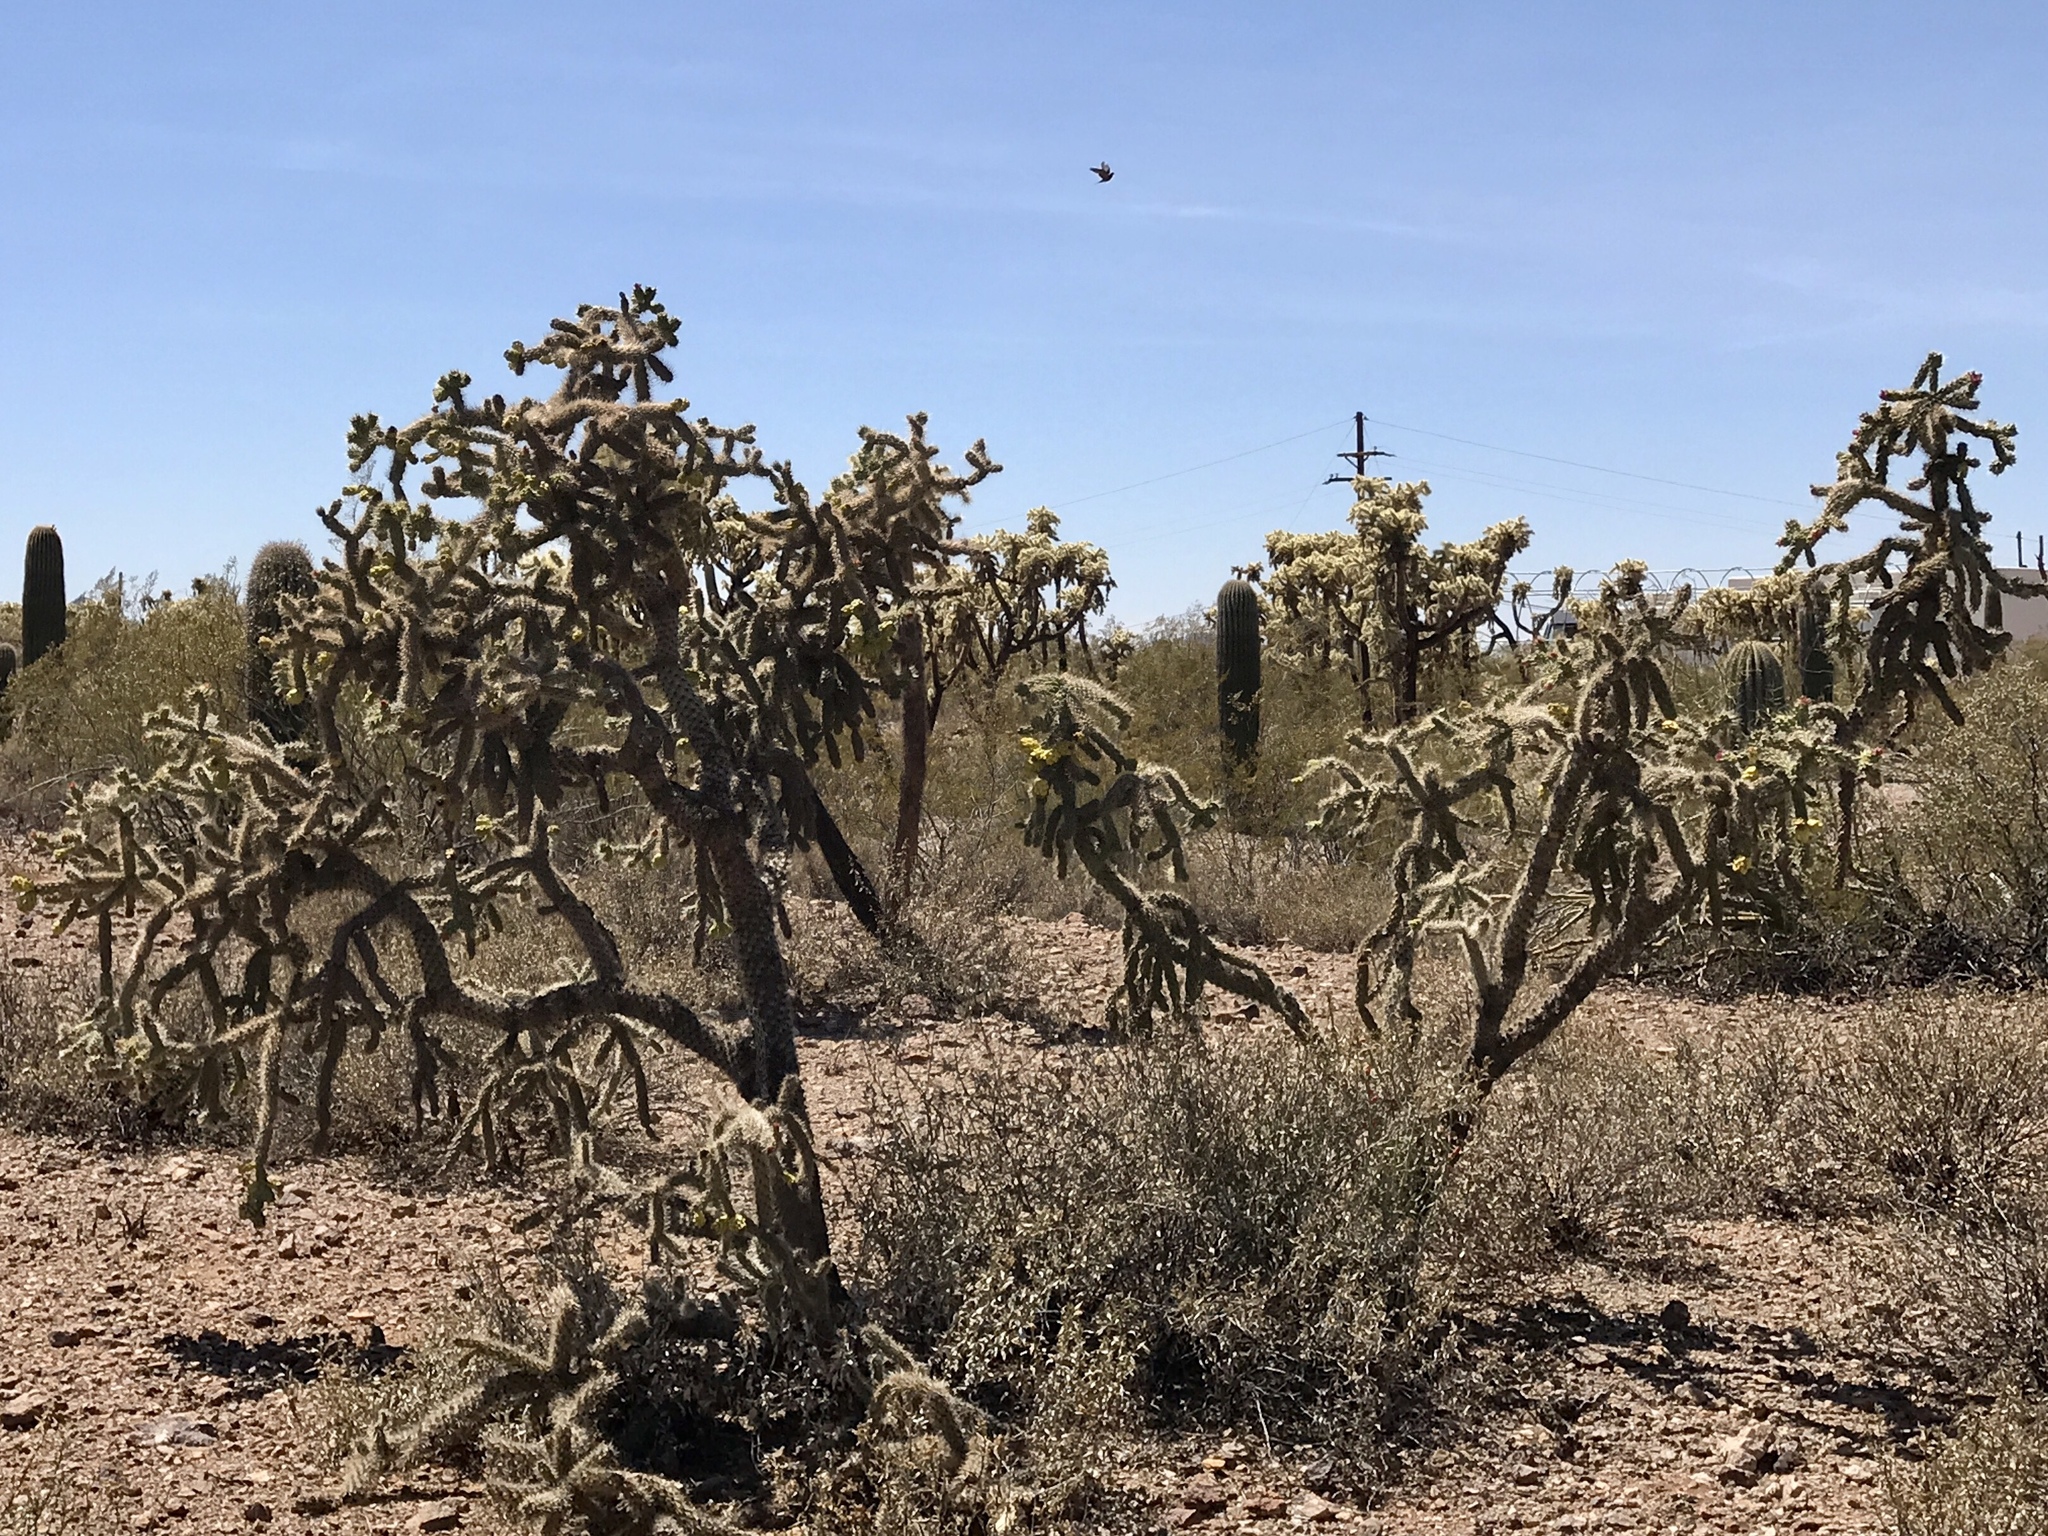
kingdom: Plantae
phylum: Tracheophyta
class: Magnoliopsida
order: Caryophyllales
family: Cactaceae
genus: Cylindropuntia
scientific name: Cylindropuntia imbricata
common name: Candelabrum cactus
